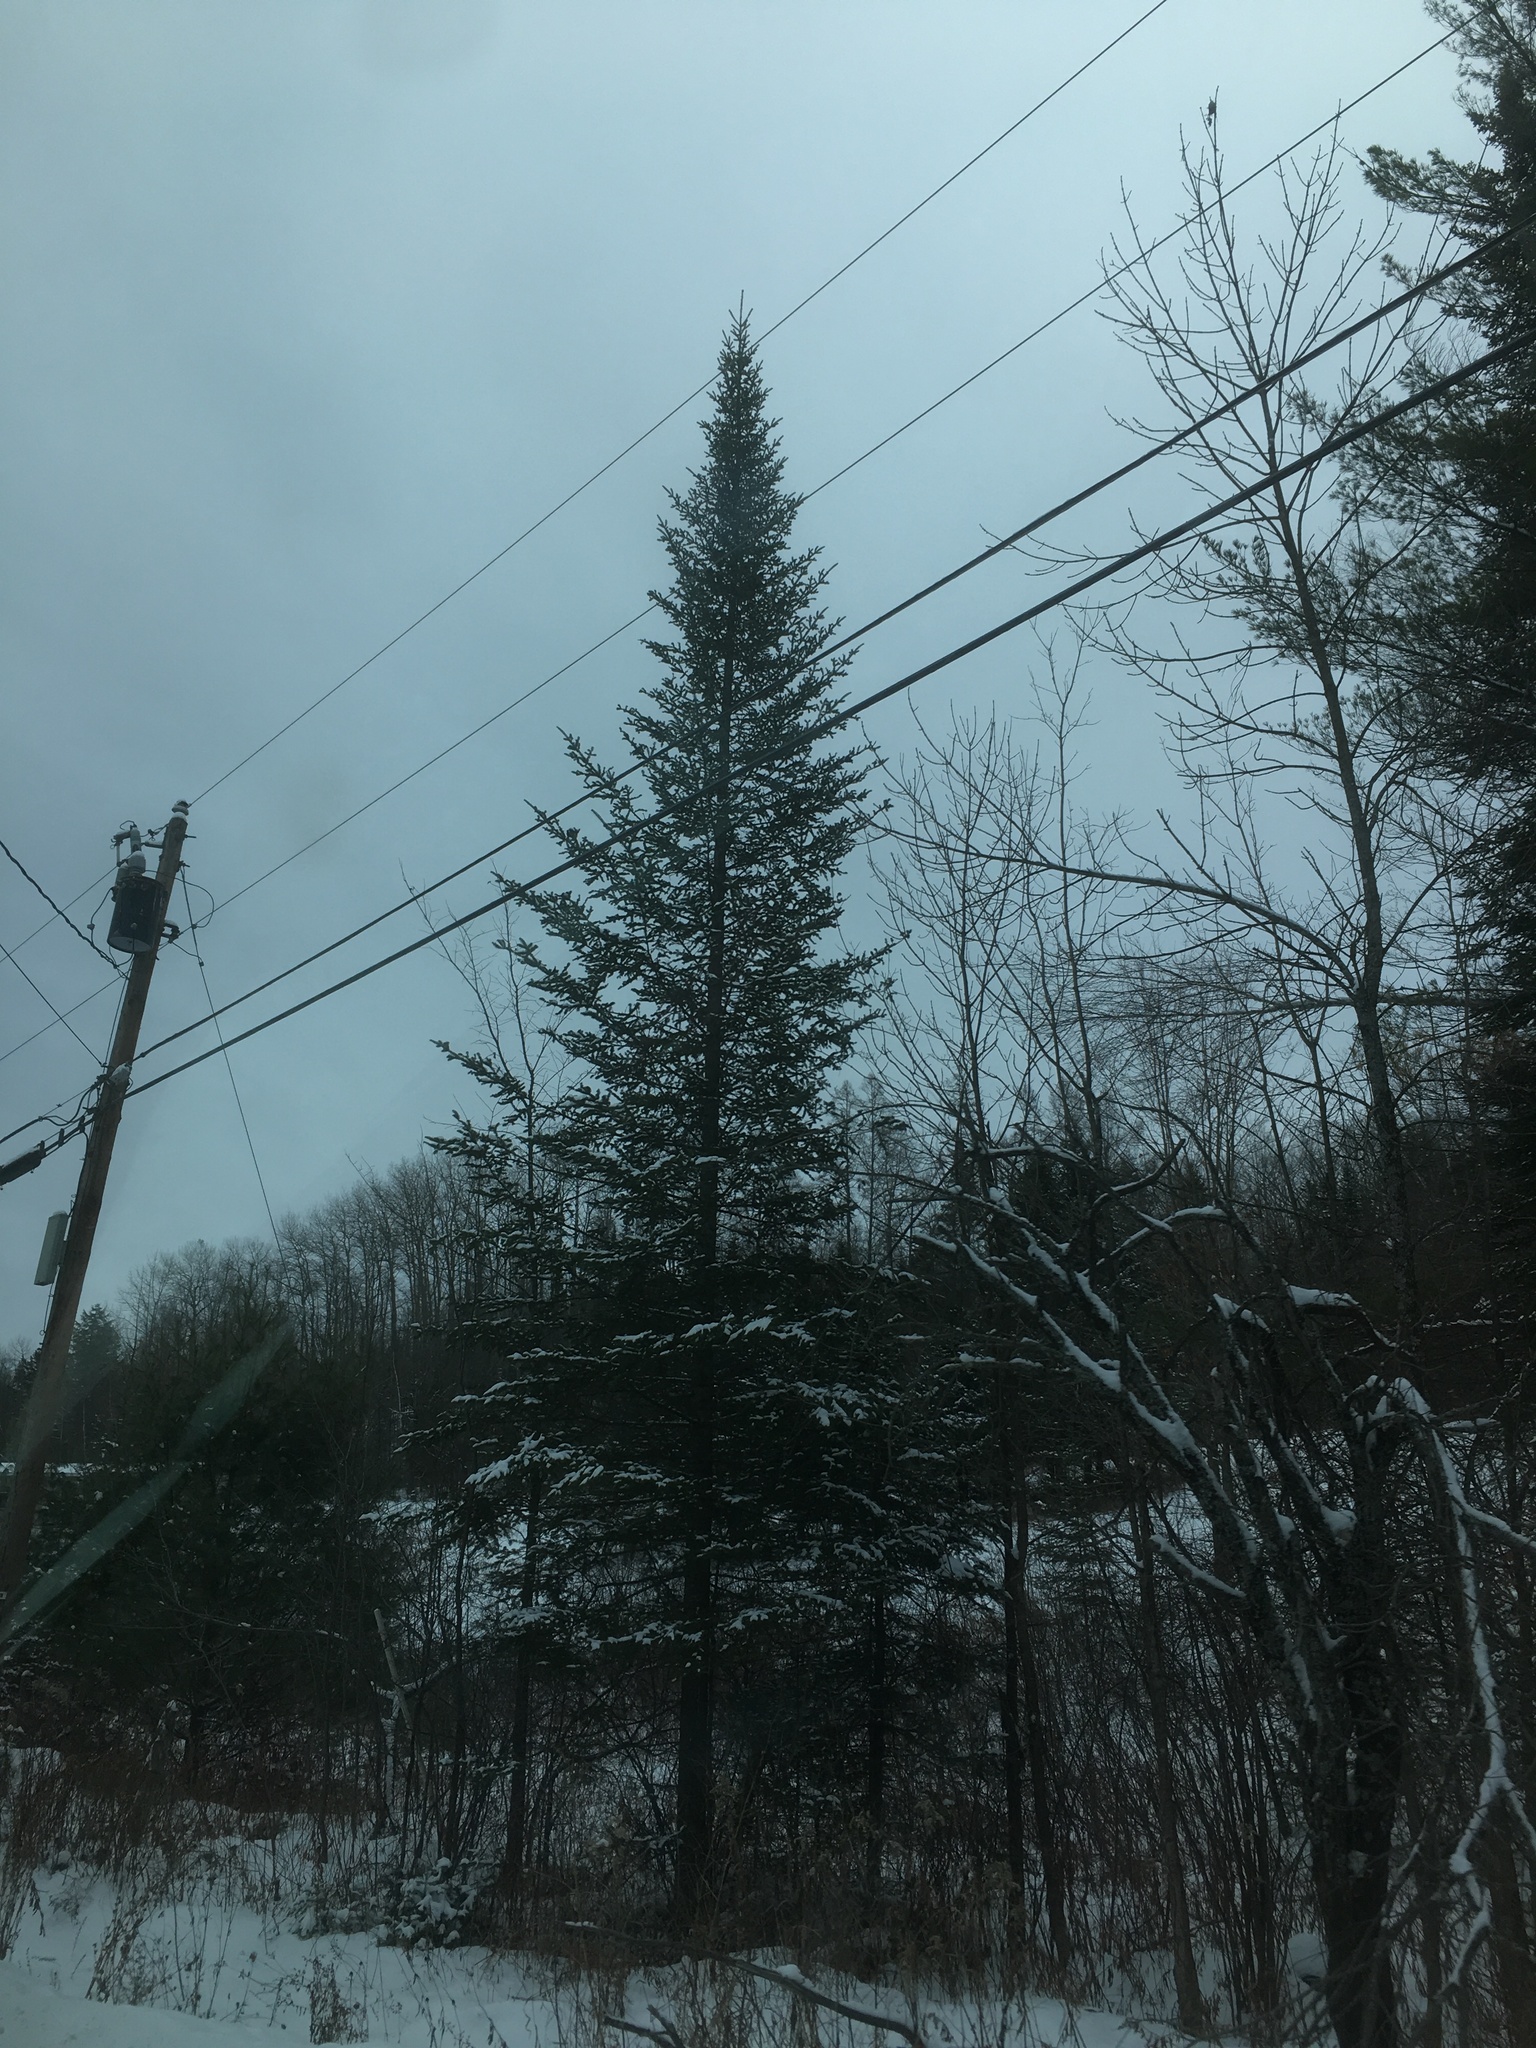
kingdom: Plantae
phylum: Tracheophyta
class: Pinopsida
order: Pinales
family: Pinaceae
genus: Abies
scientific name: Abies balsamea
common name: Balsam fir
